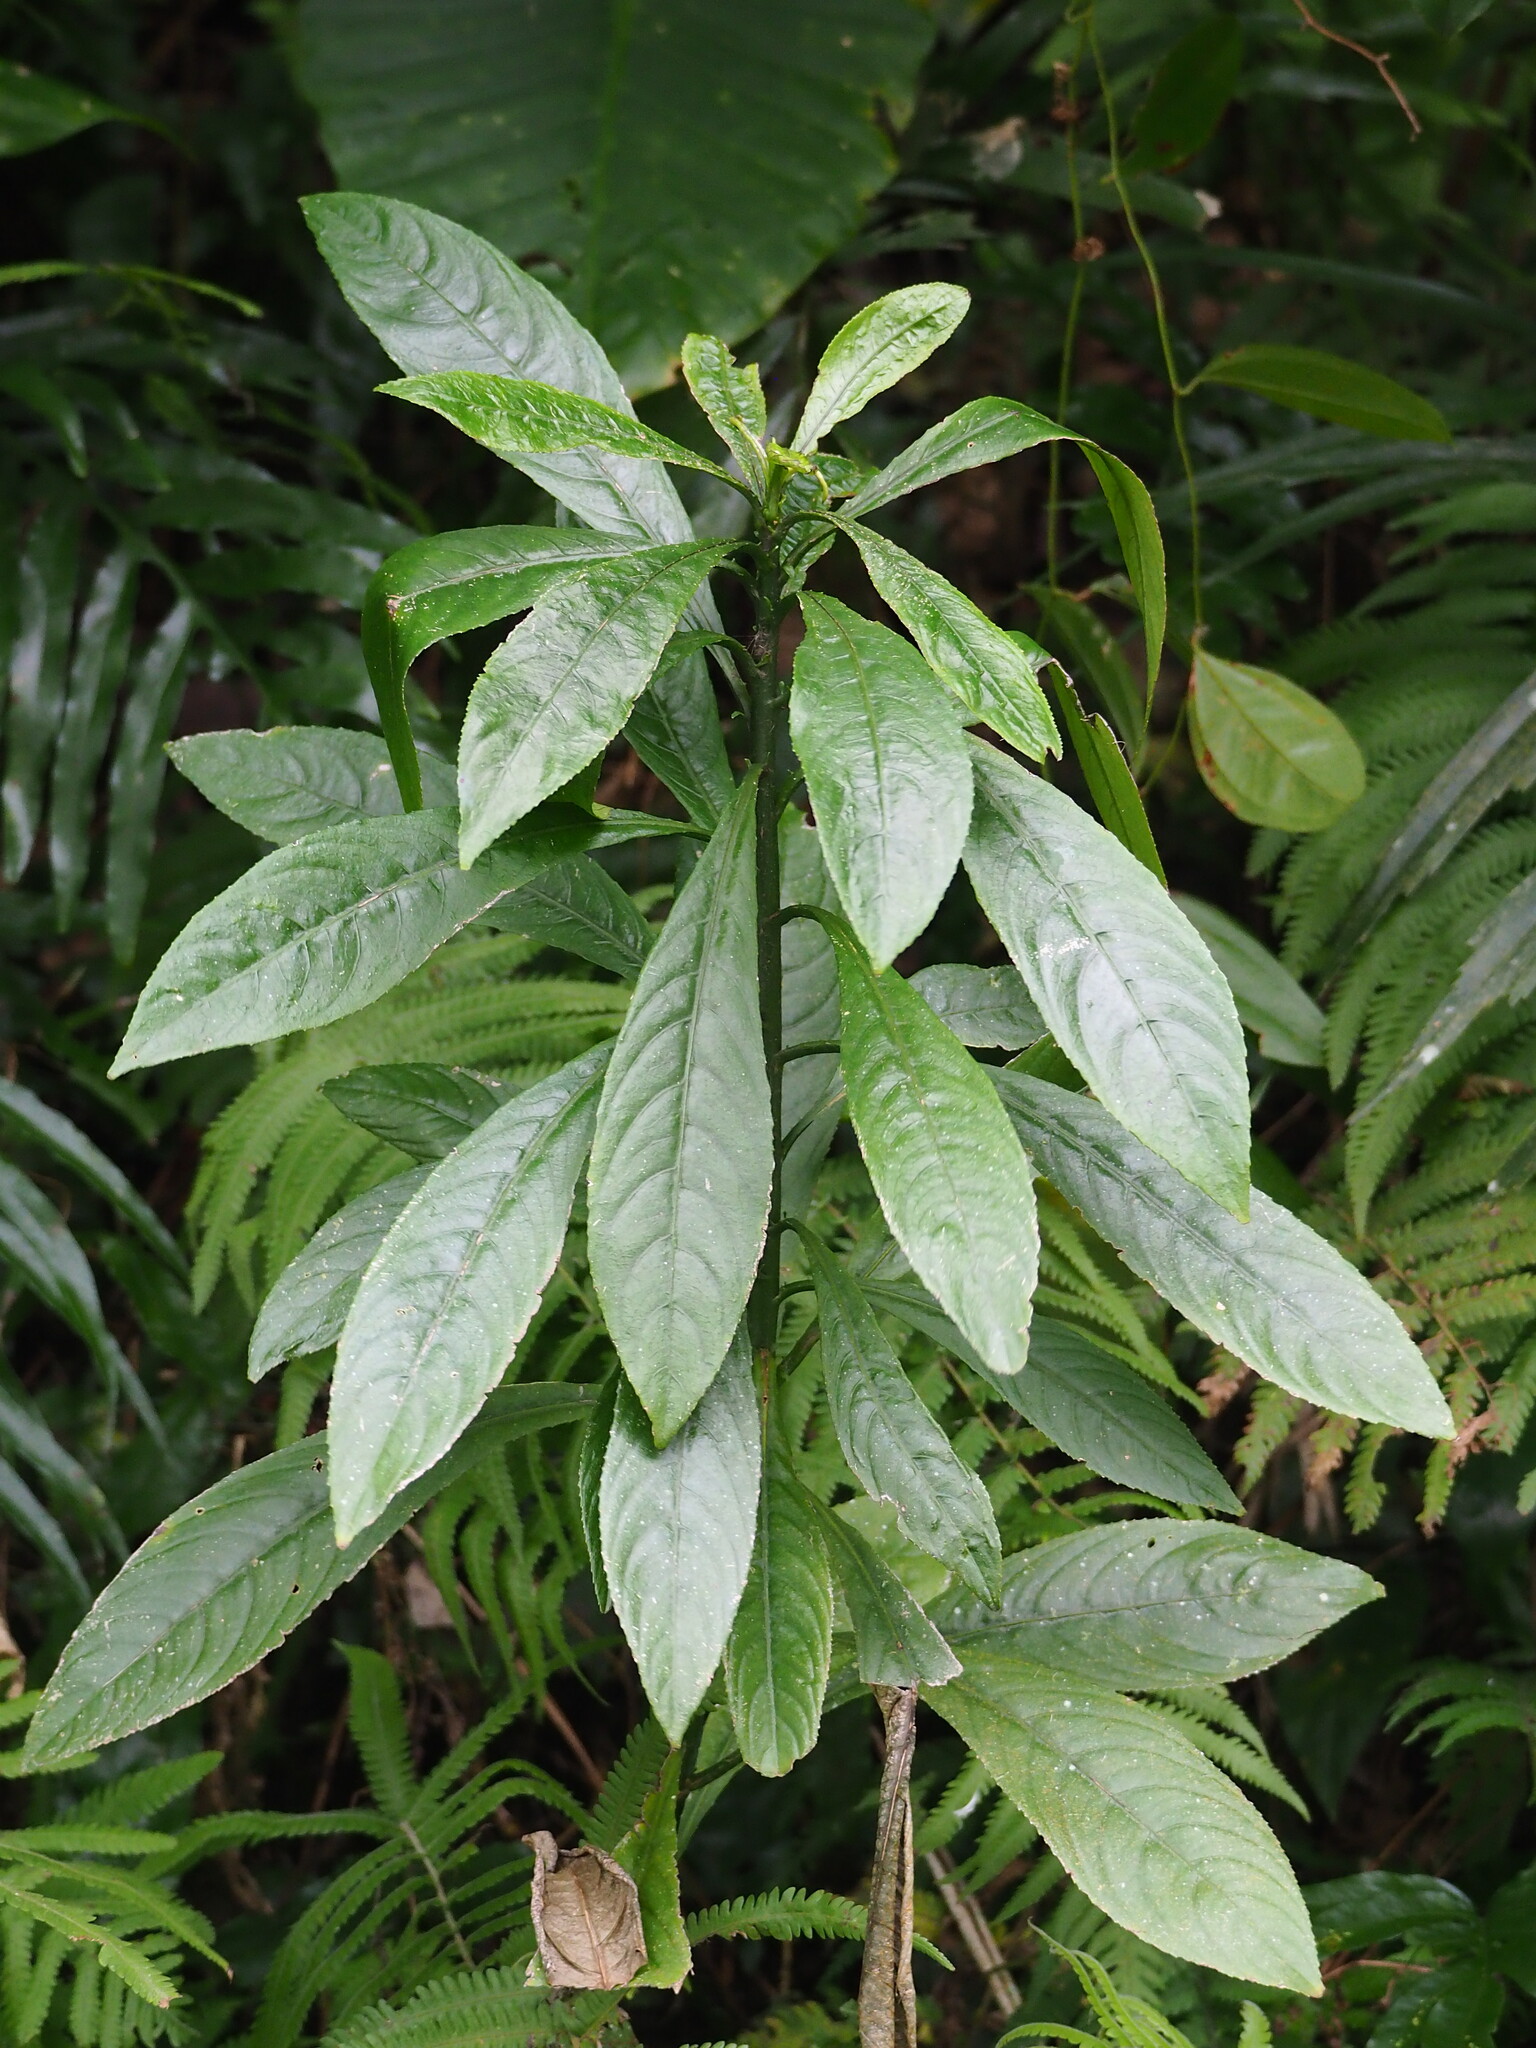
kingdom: Plantae
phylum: Tracheophyta
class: Magnoliopsida
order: Asterales
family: Asteraceae
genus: Blumea
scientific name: Blumea lanceolaria
